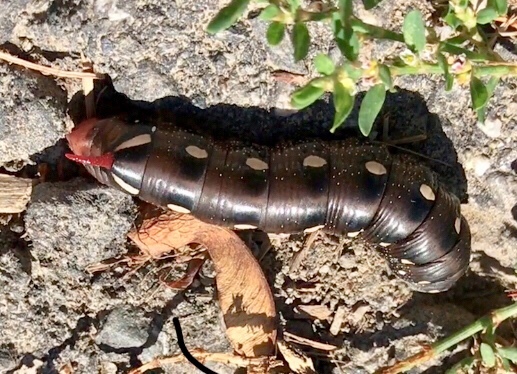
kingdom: Animalia
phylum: Arthropoda
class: Insecta
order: Lepidoptera
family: Sphingidae
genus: Hyles
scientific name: Hyles gallii
